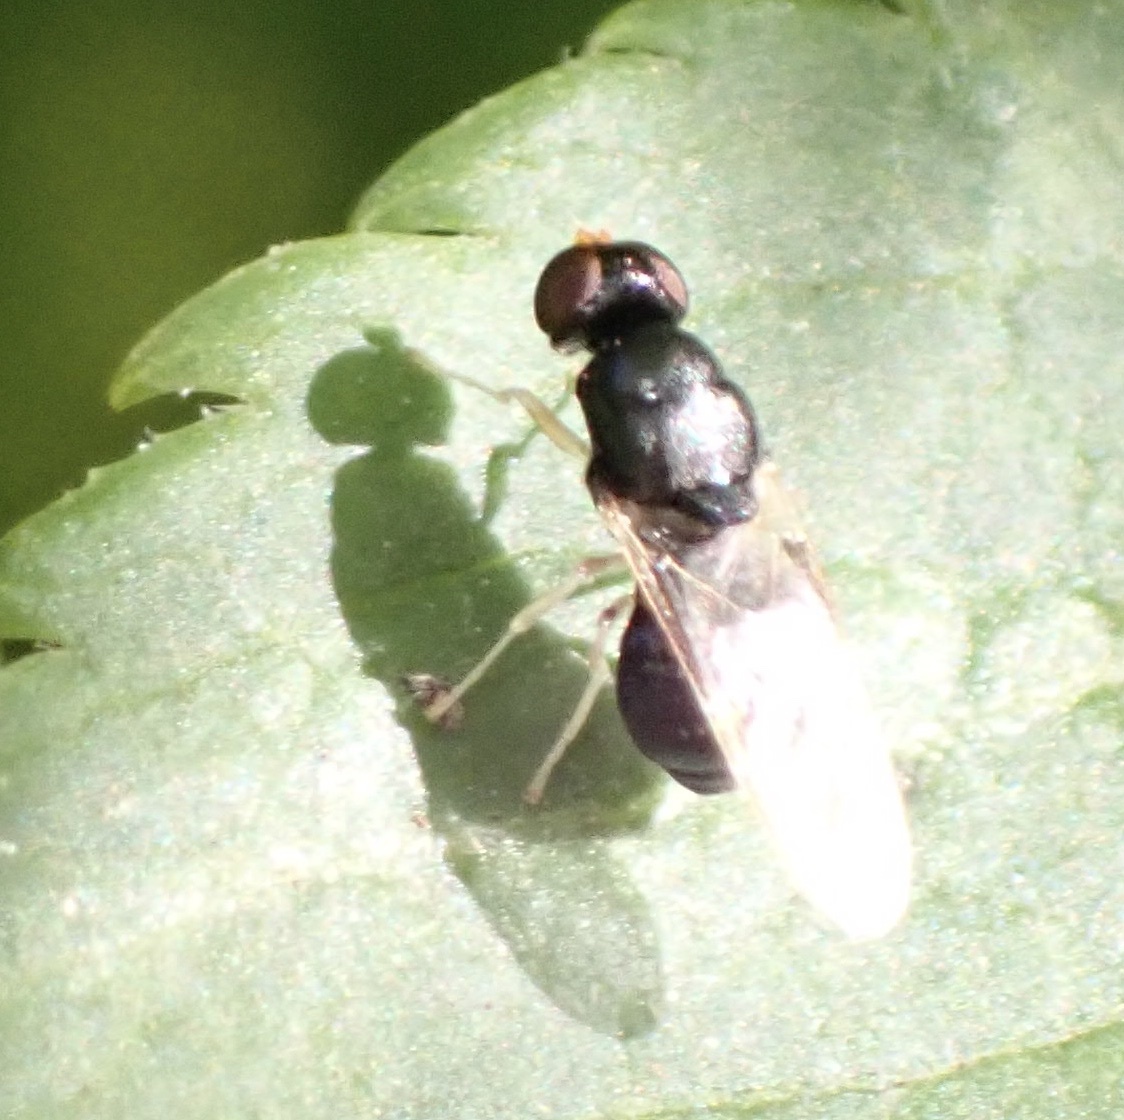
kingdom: Animalia
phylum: Arthropoda
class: Insecta
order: Diptera
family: Stratiomyidae
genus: Pachygaster
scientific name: Pachygaster leachii
